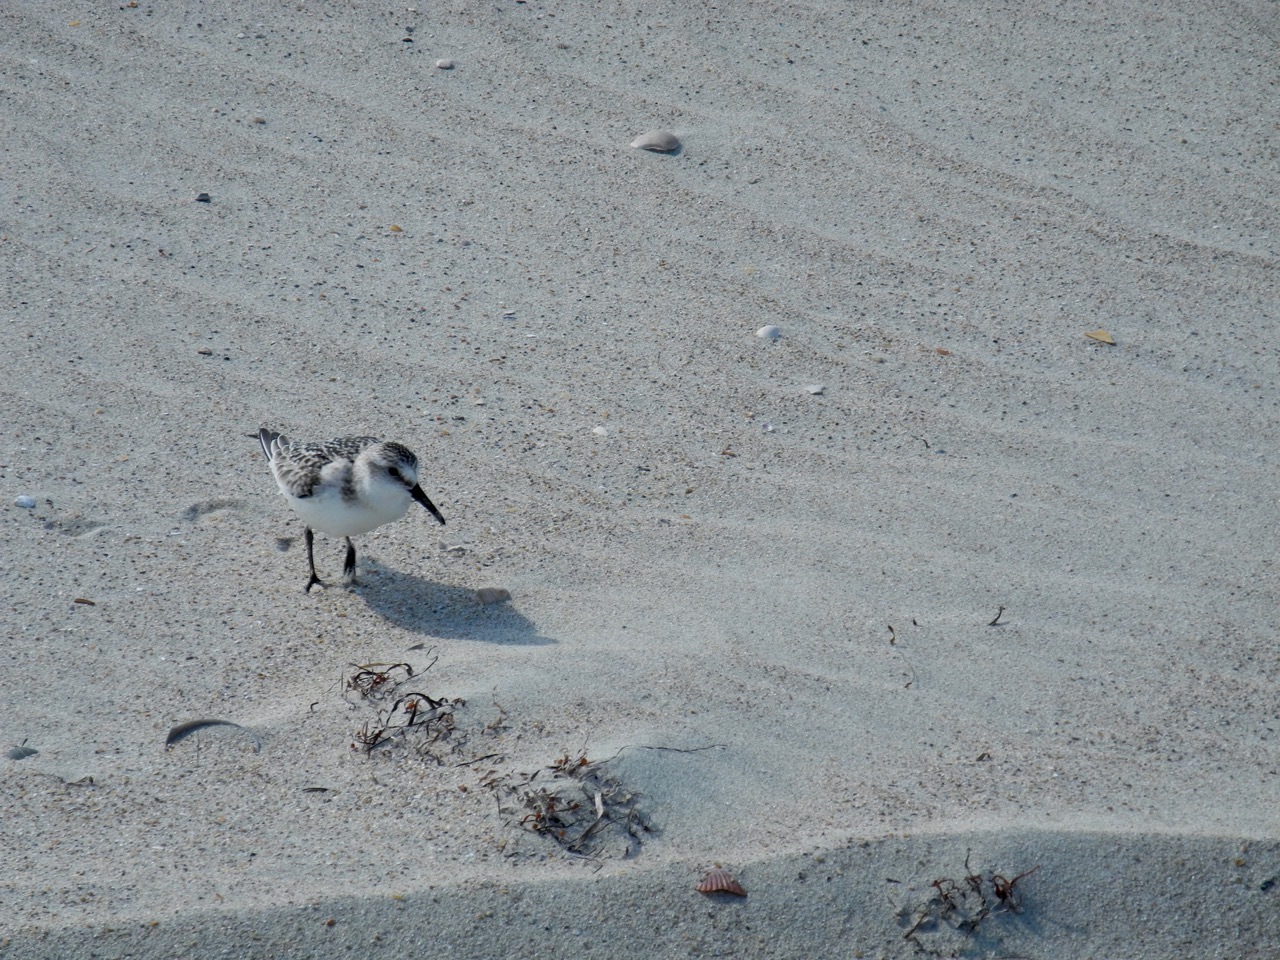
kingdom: Animalia
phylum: Chordata
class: Aves
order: Charadriiformes
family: Scolopacidae
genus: Calidris
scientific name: Calidris alba
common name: Sanderling
